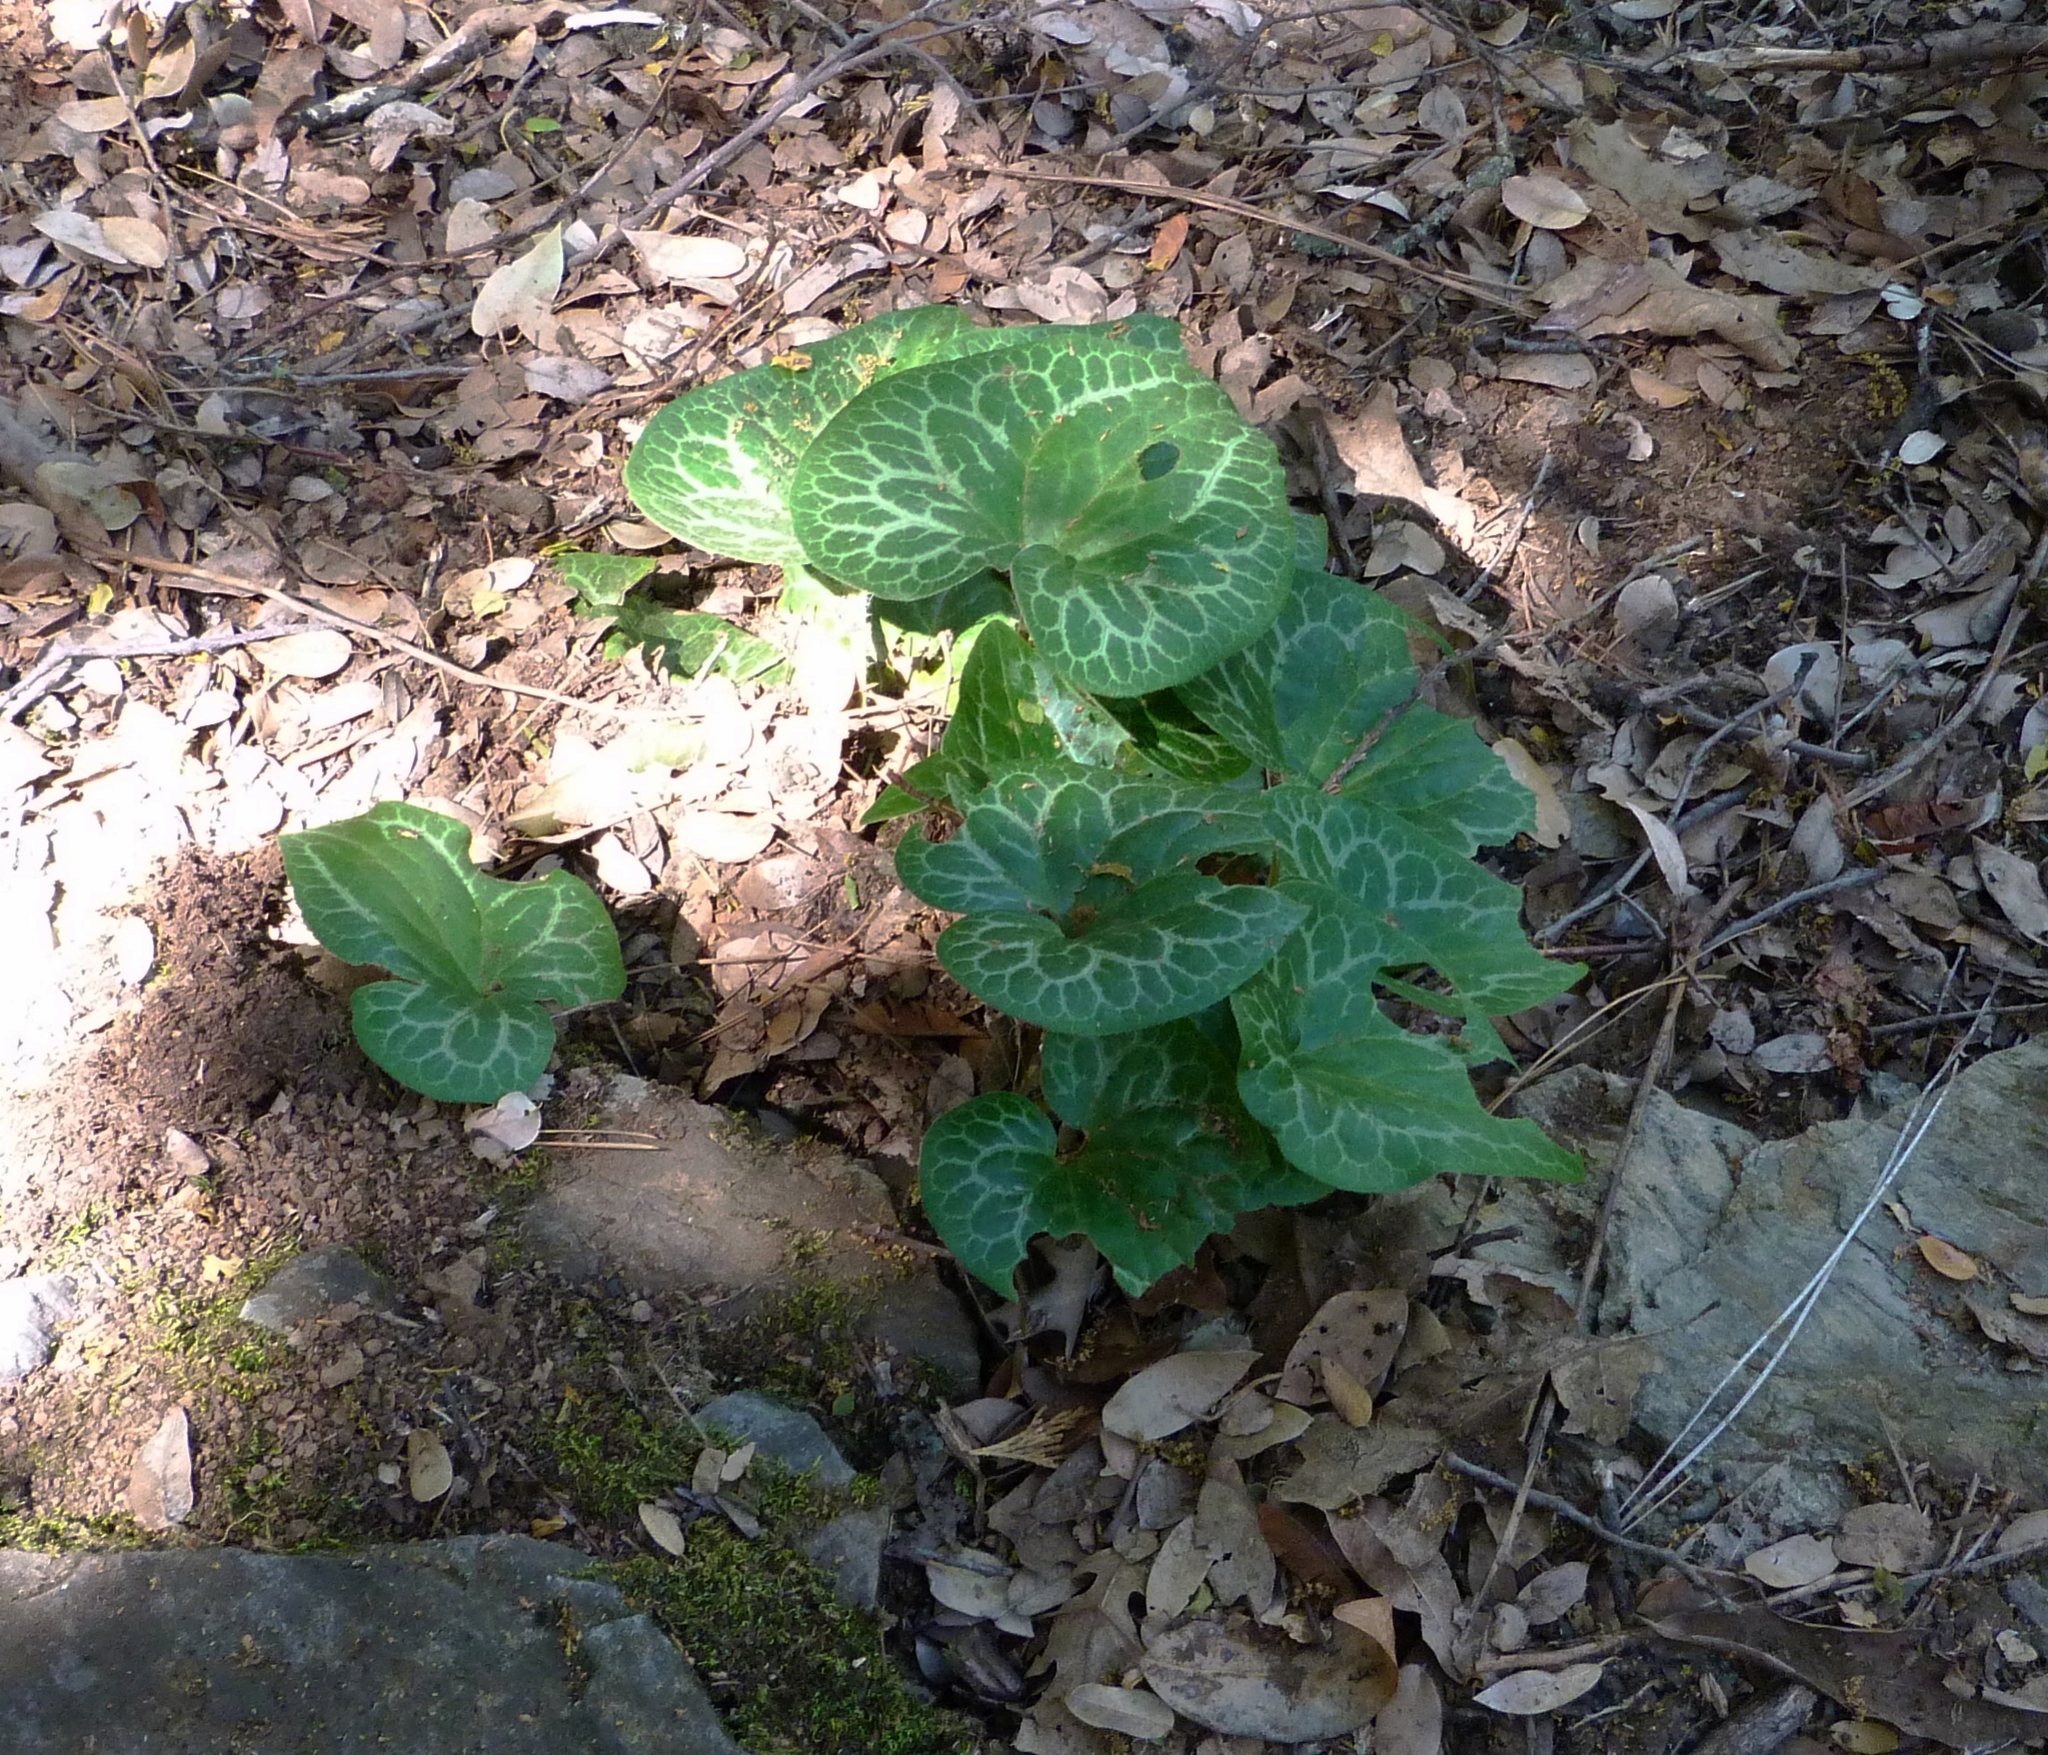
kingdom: Plantae
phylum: Tracheophyta
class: Magnoliopsida
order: Piperales
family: Aristolochiaceae
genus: Asarum
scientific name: Asarum hartwegii
